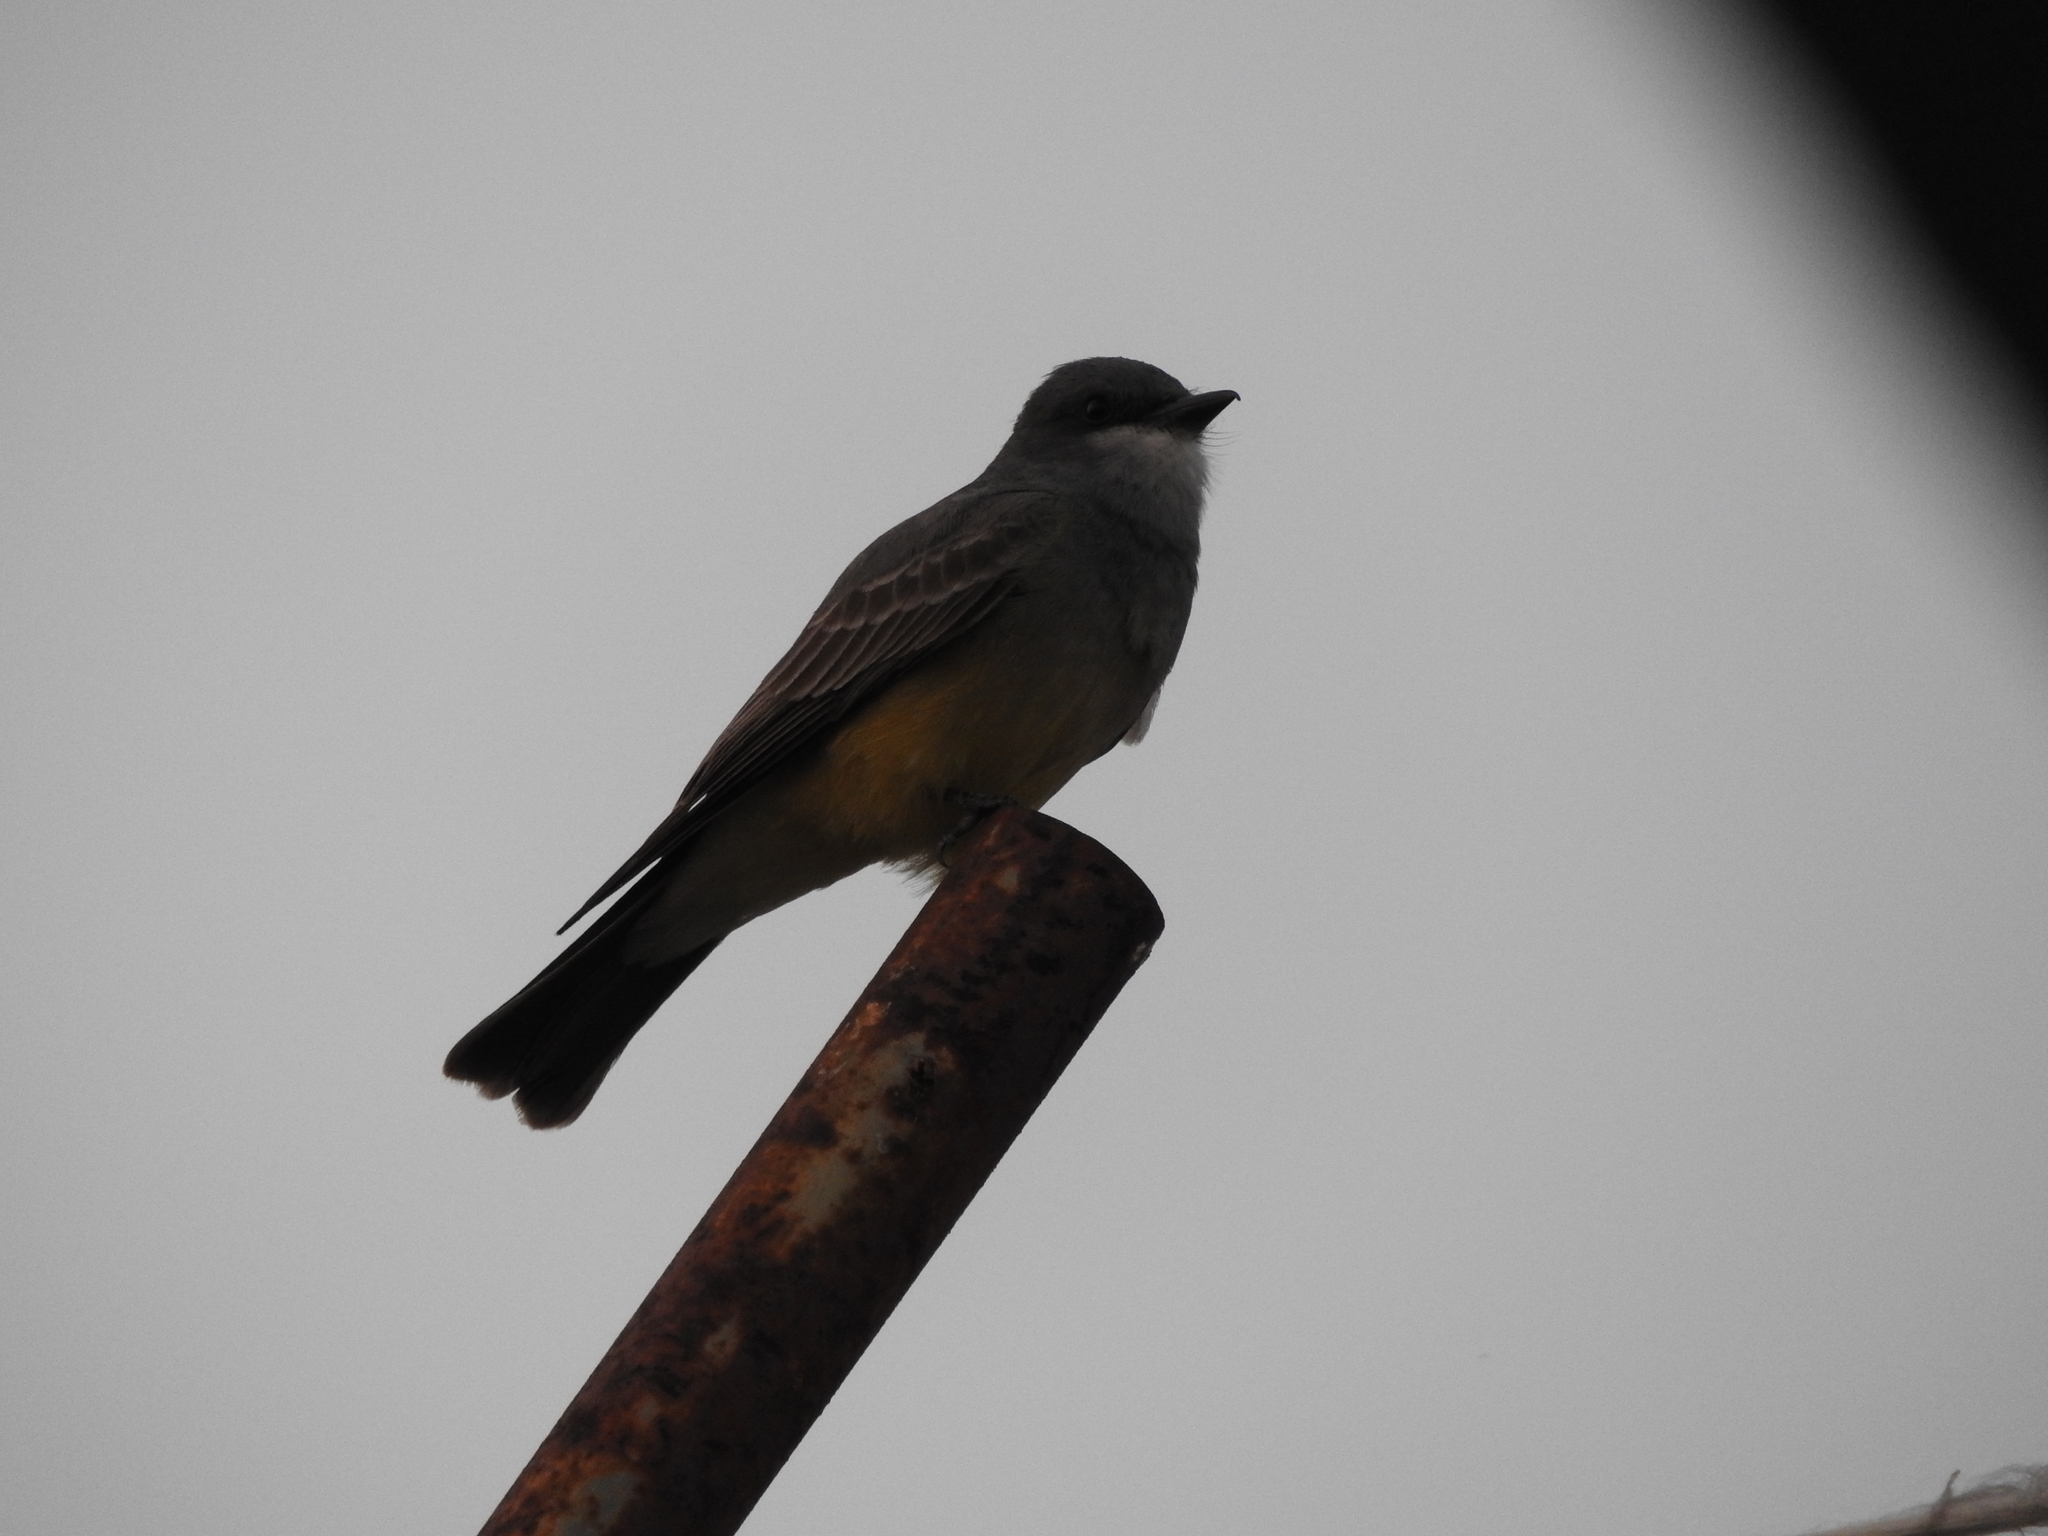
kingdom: Animalia
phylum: Chordata
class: Aves
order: Passeriformes
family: Tyrannidae
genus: Tyrannus
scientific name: Tyrannus vociferans
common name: Cassin's kingbird
